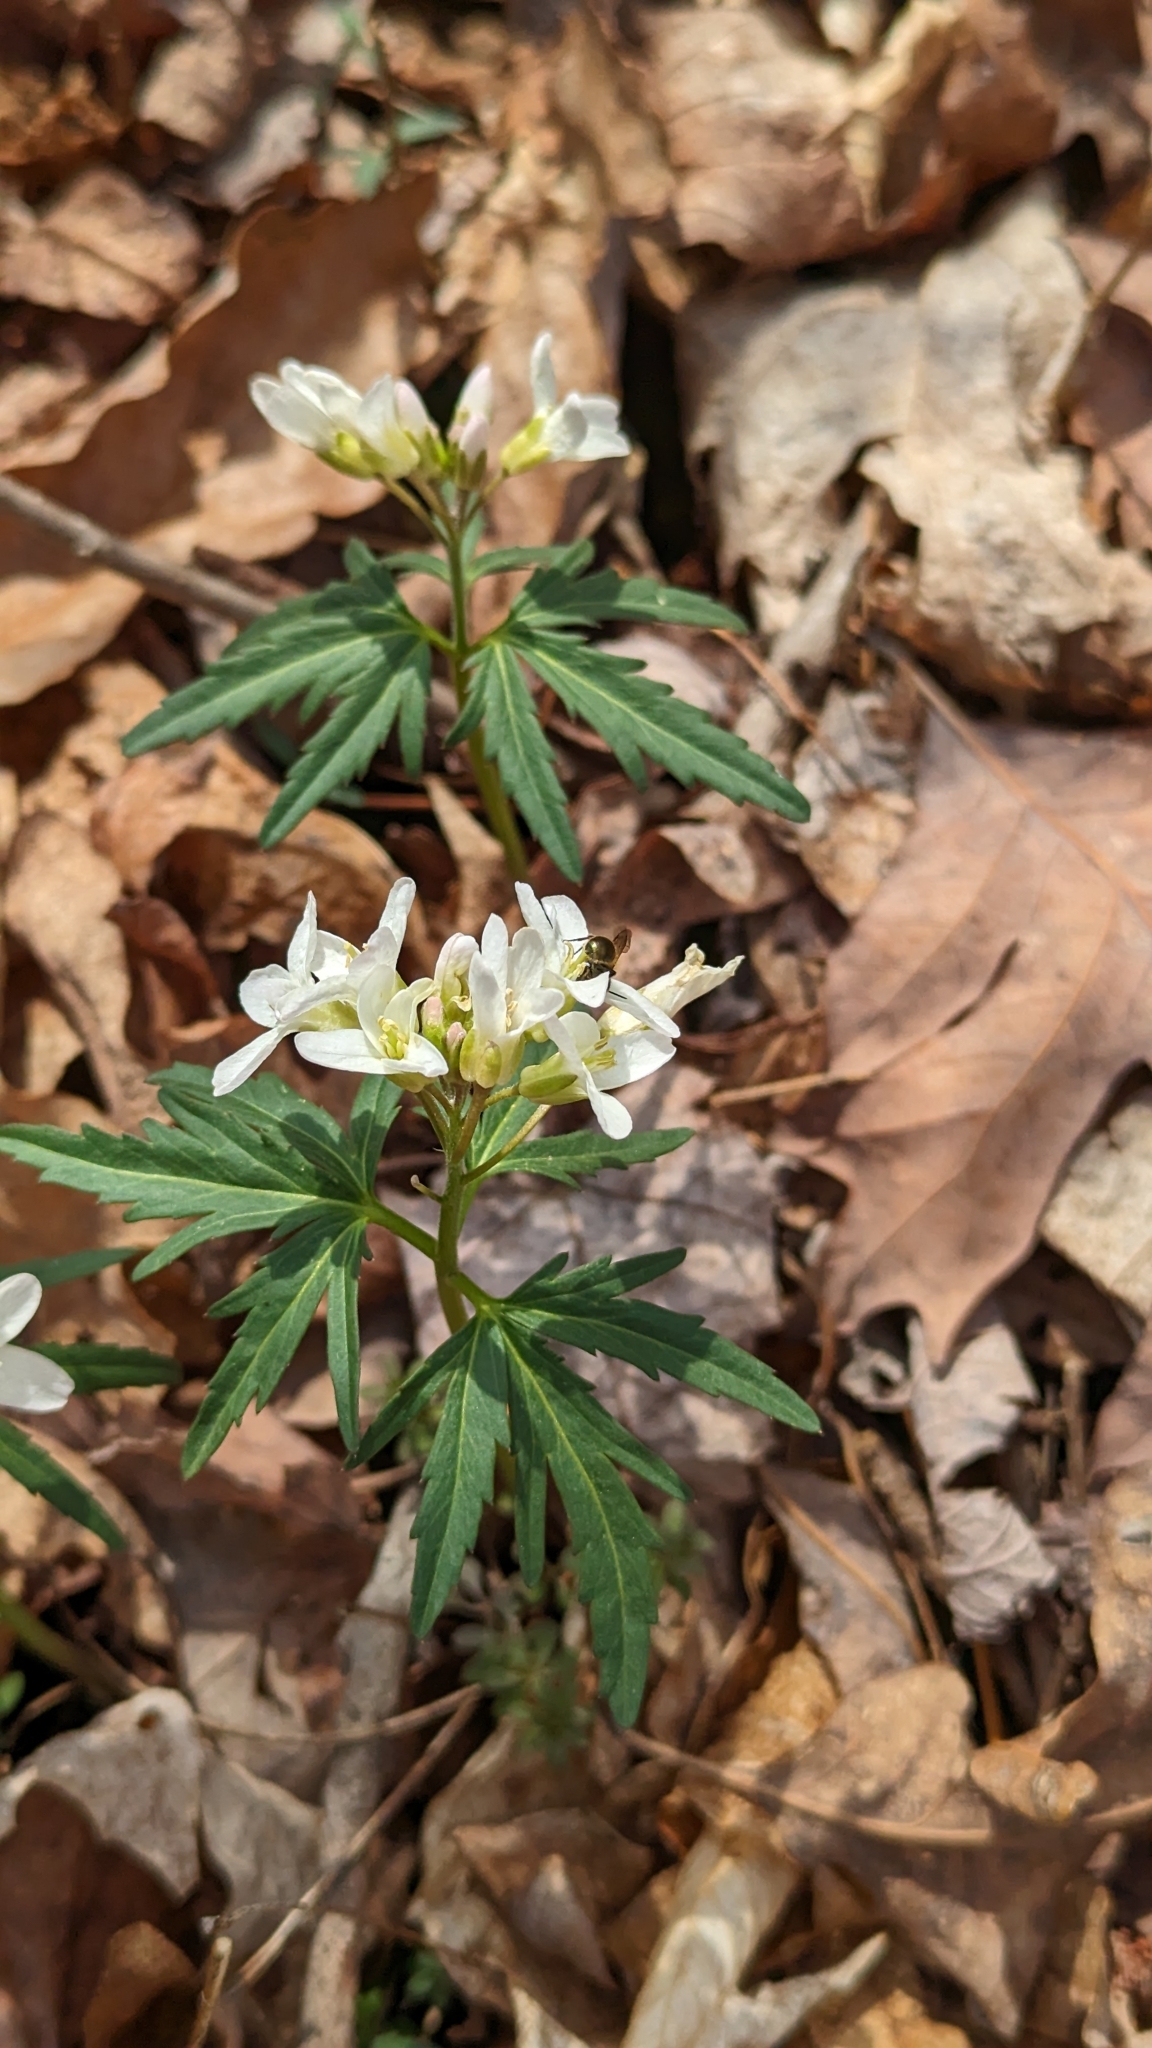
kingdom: Plantae
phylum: Tracheophyta
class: Magnoliopsida
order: Brassicales
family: Brassicaceae
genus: Cardamine
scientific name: Cardamine concatenata
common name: Cut-leaf toothcup
